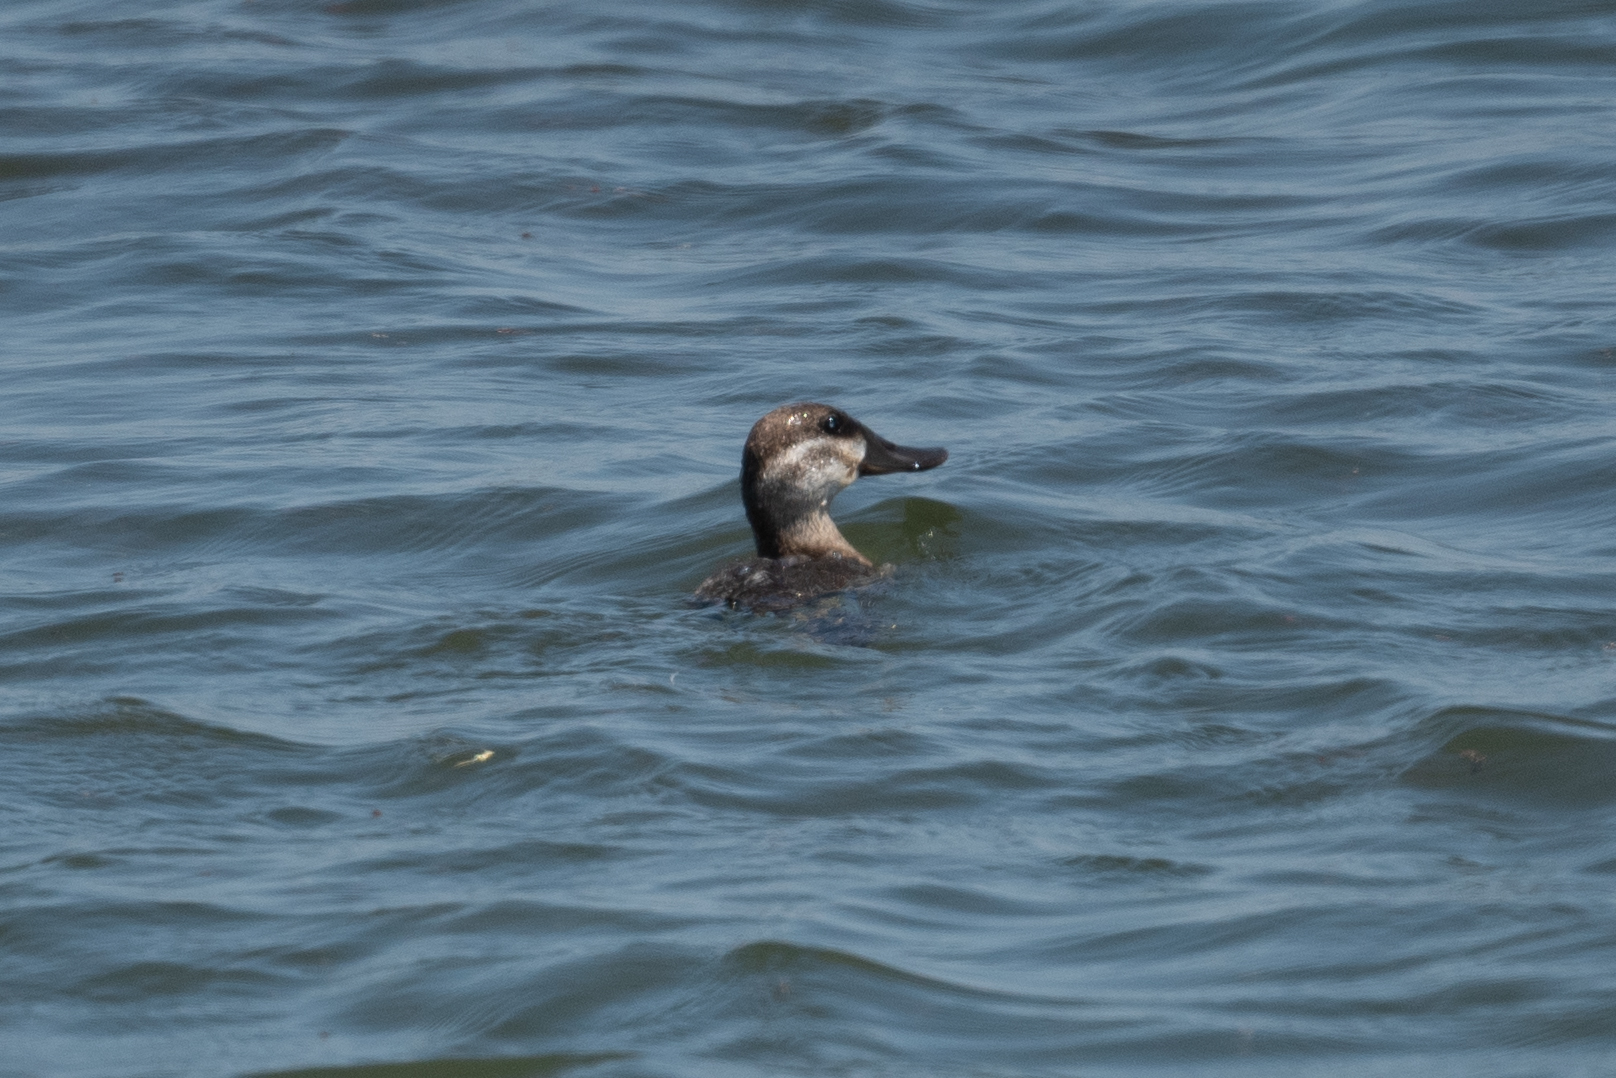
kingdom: Animalia
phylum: Chordata
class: Aves
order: Anseriformes
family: Anatidae
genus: Oxyura
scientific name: Oxyura jamaicensis
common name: Ruddy duck
